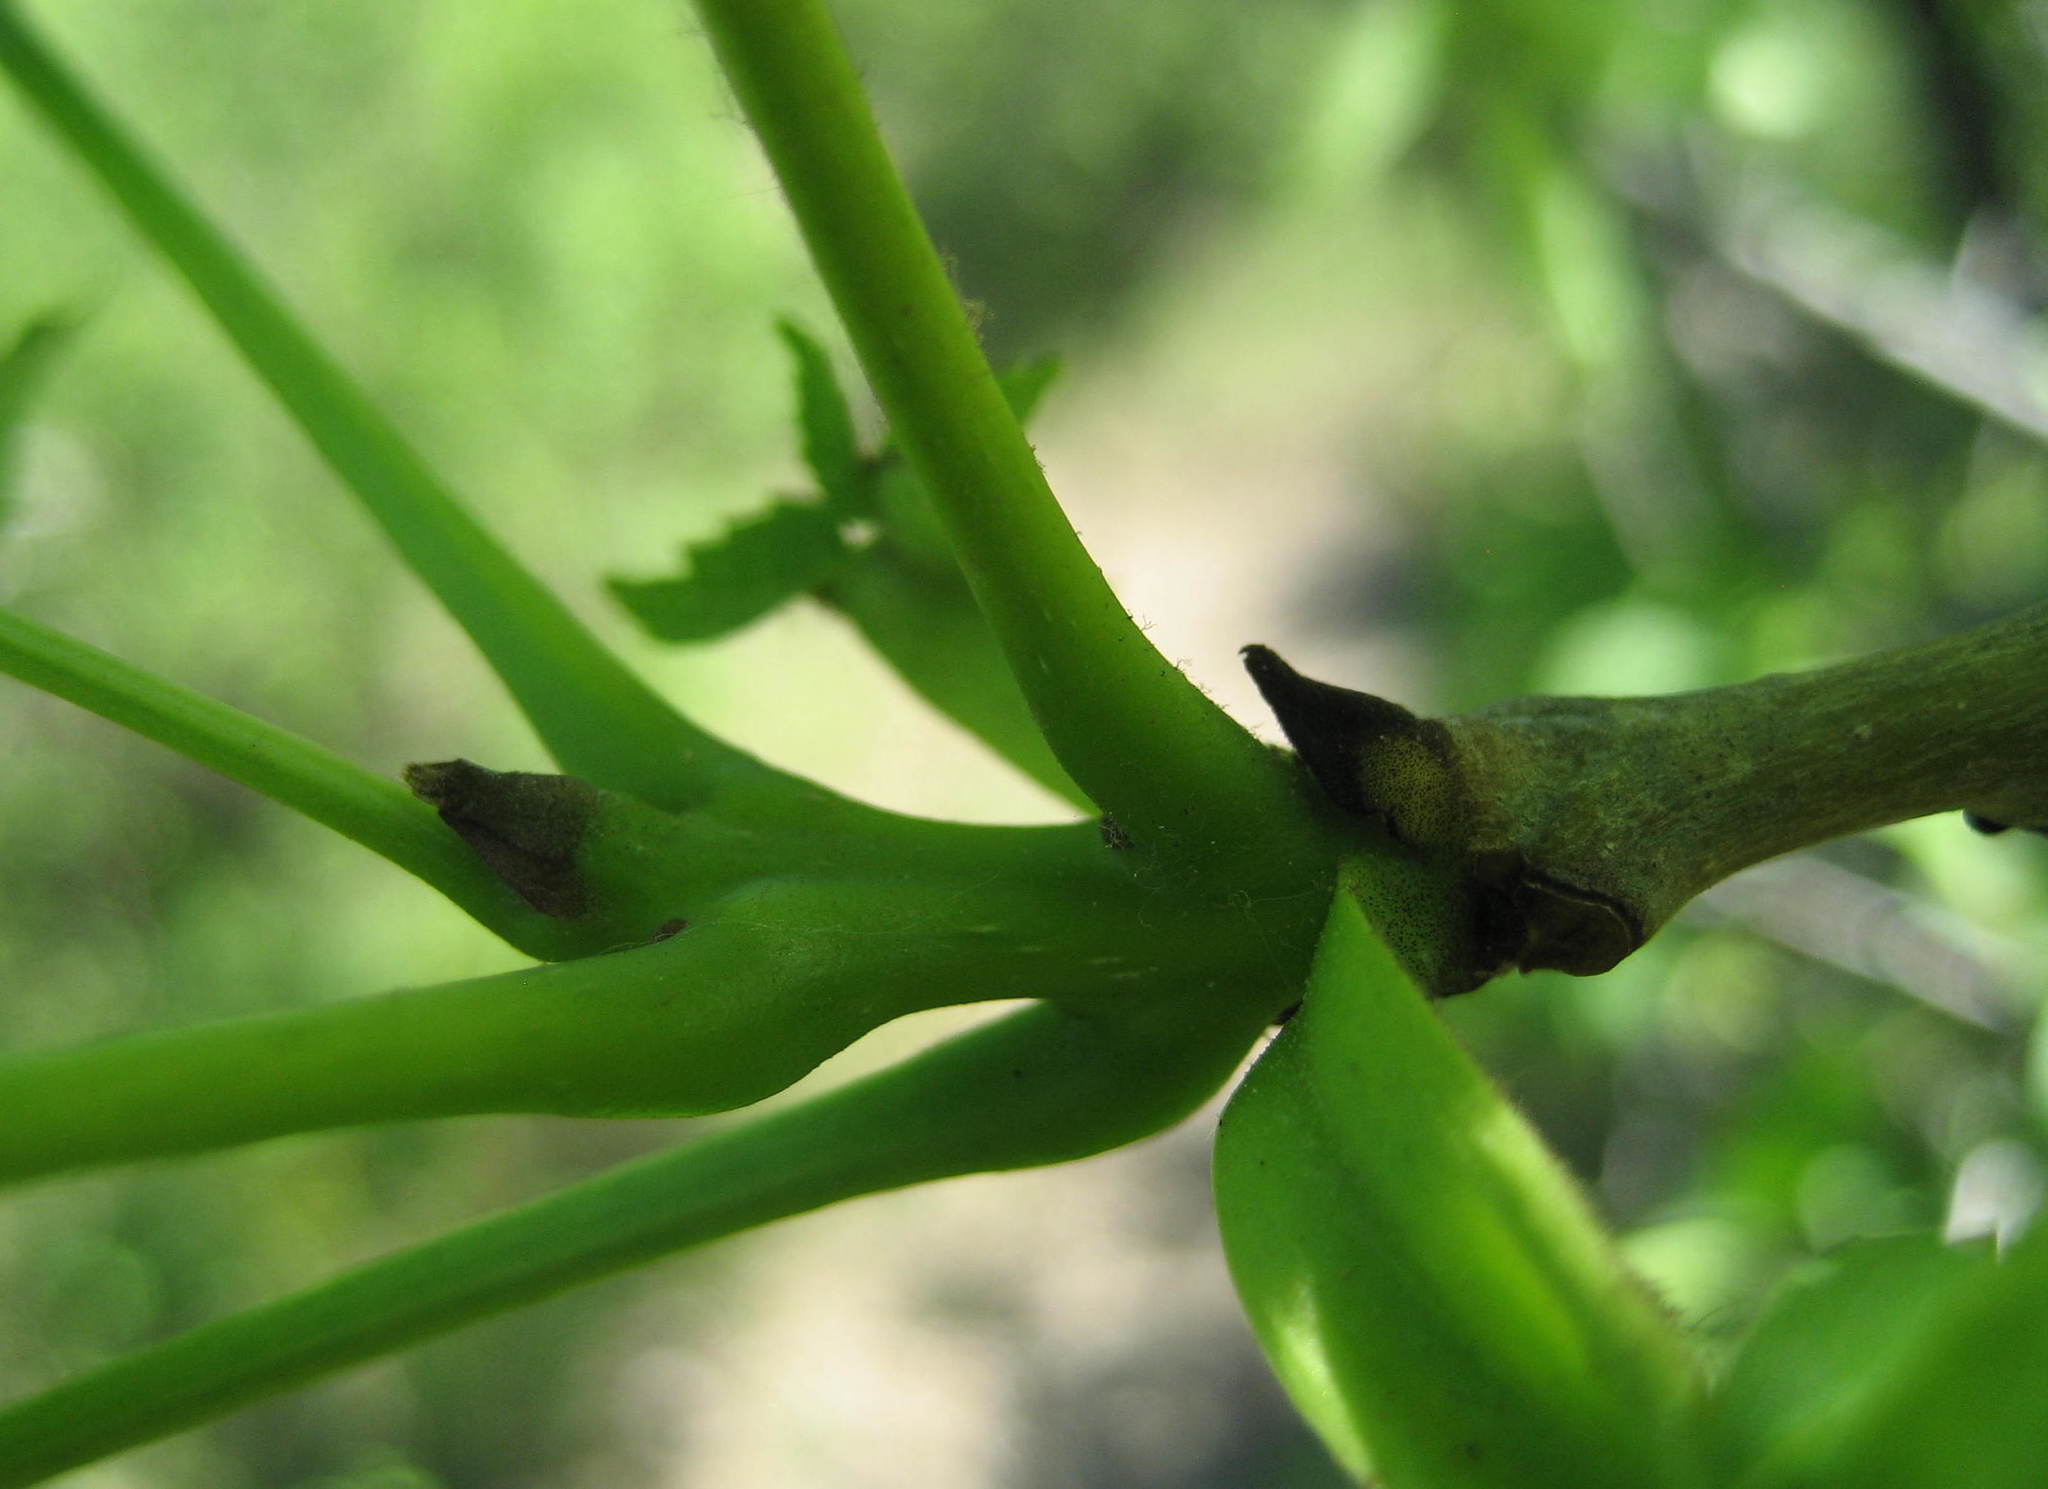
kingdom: Plantae
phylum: Tracheophyta
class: Magnoliopsida
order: Lamiales
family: Oleaceae
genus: Fraxinus
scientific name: Fraxinus excelsior
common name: European ash
